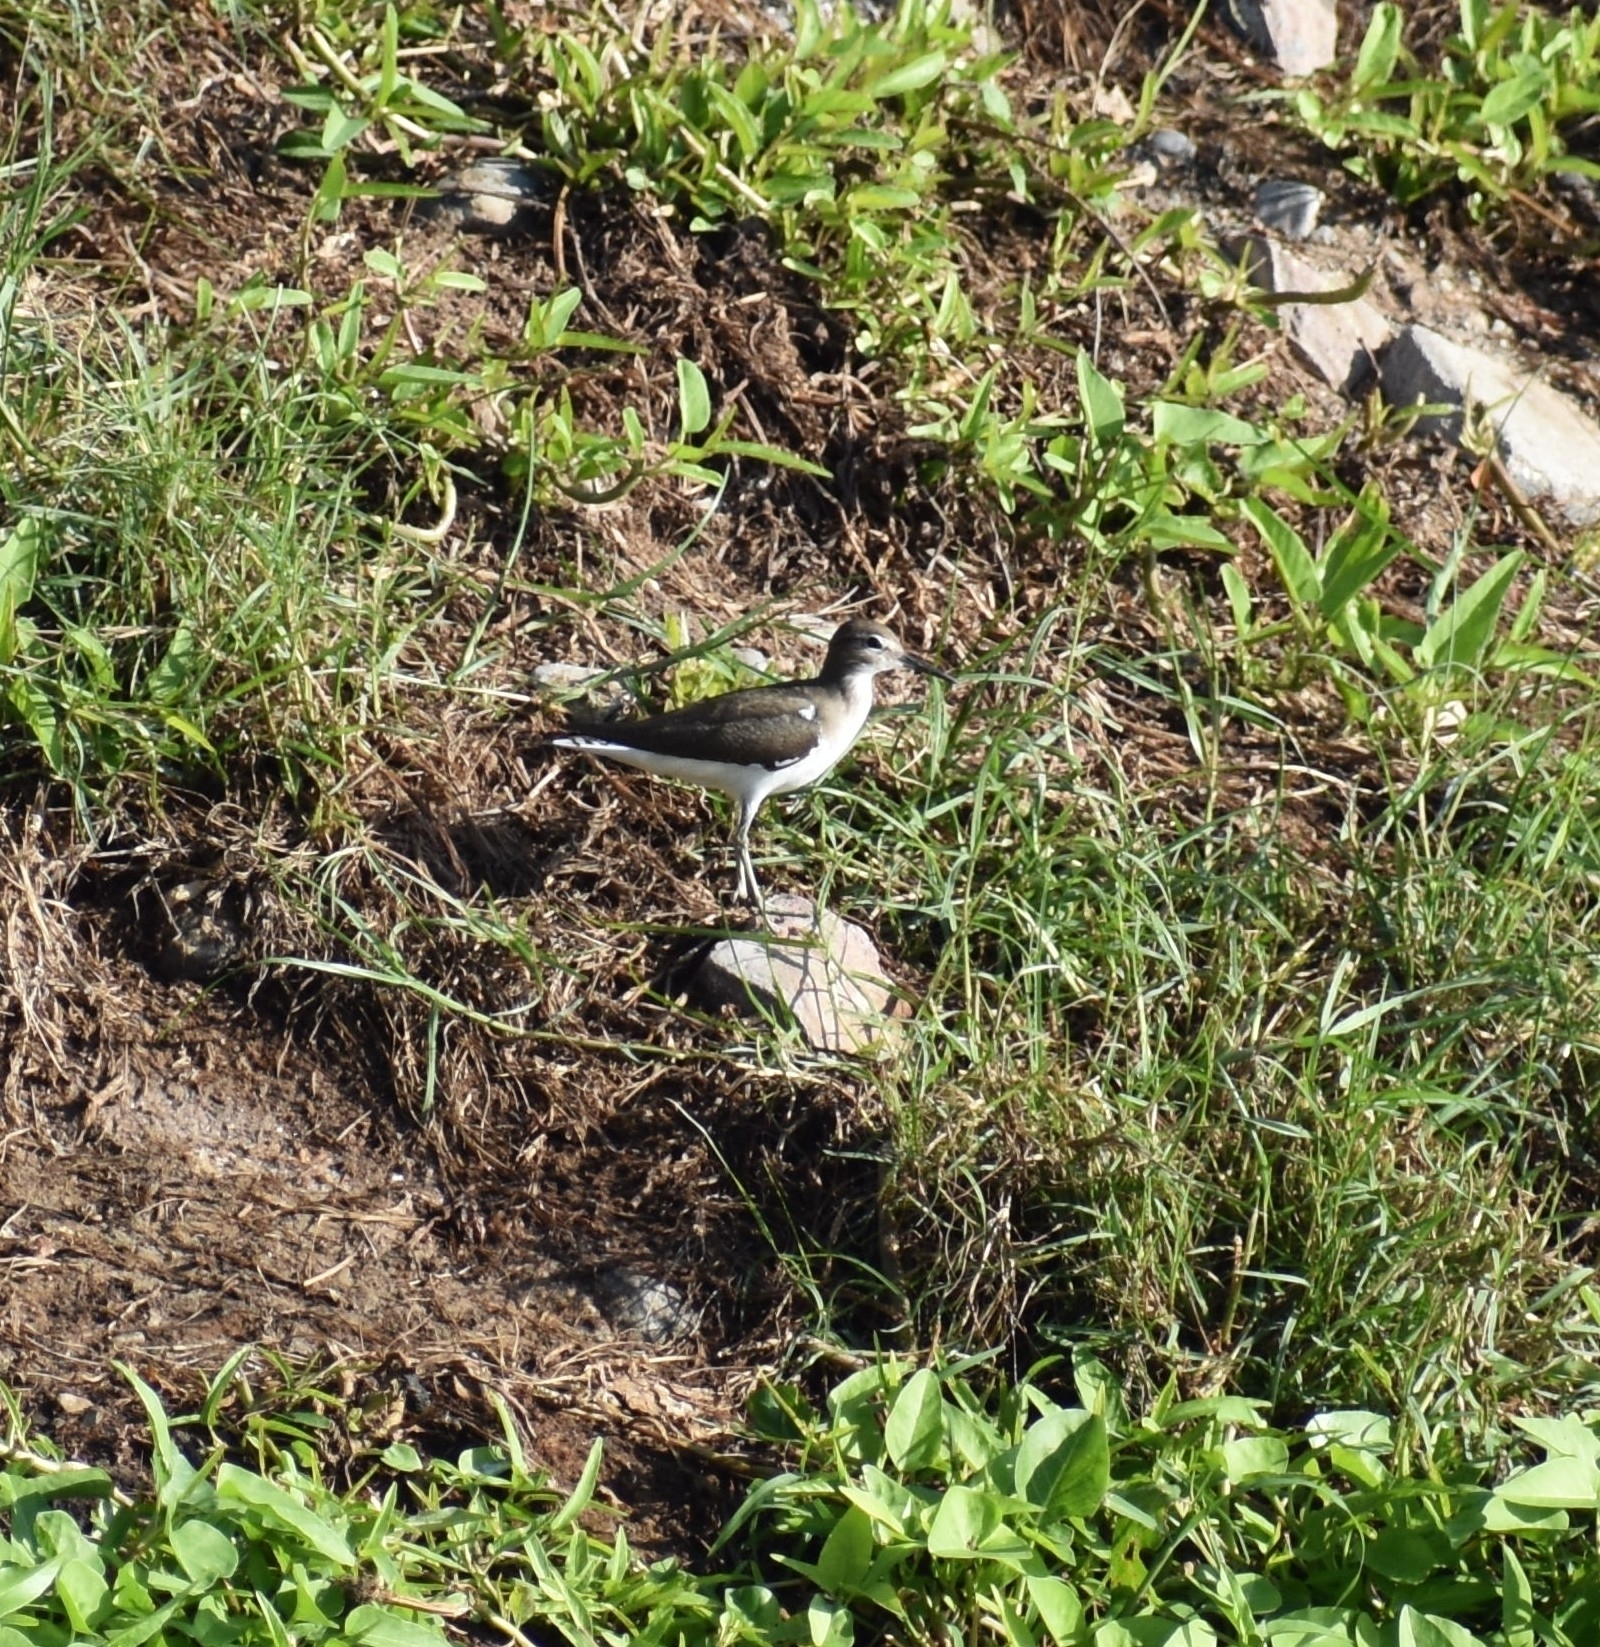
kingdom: Animalia
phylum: Chordata
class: Aves
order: Charadriiformes
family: Scolopacidae
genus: Actitis
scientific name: Actitis hypoleucos
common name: Common sandpiper
